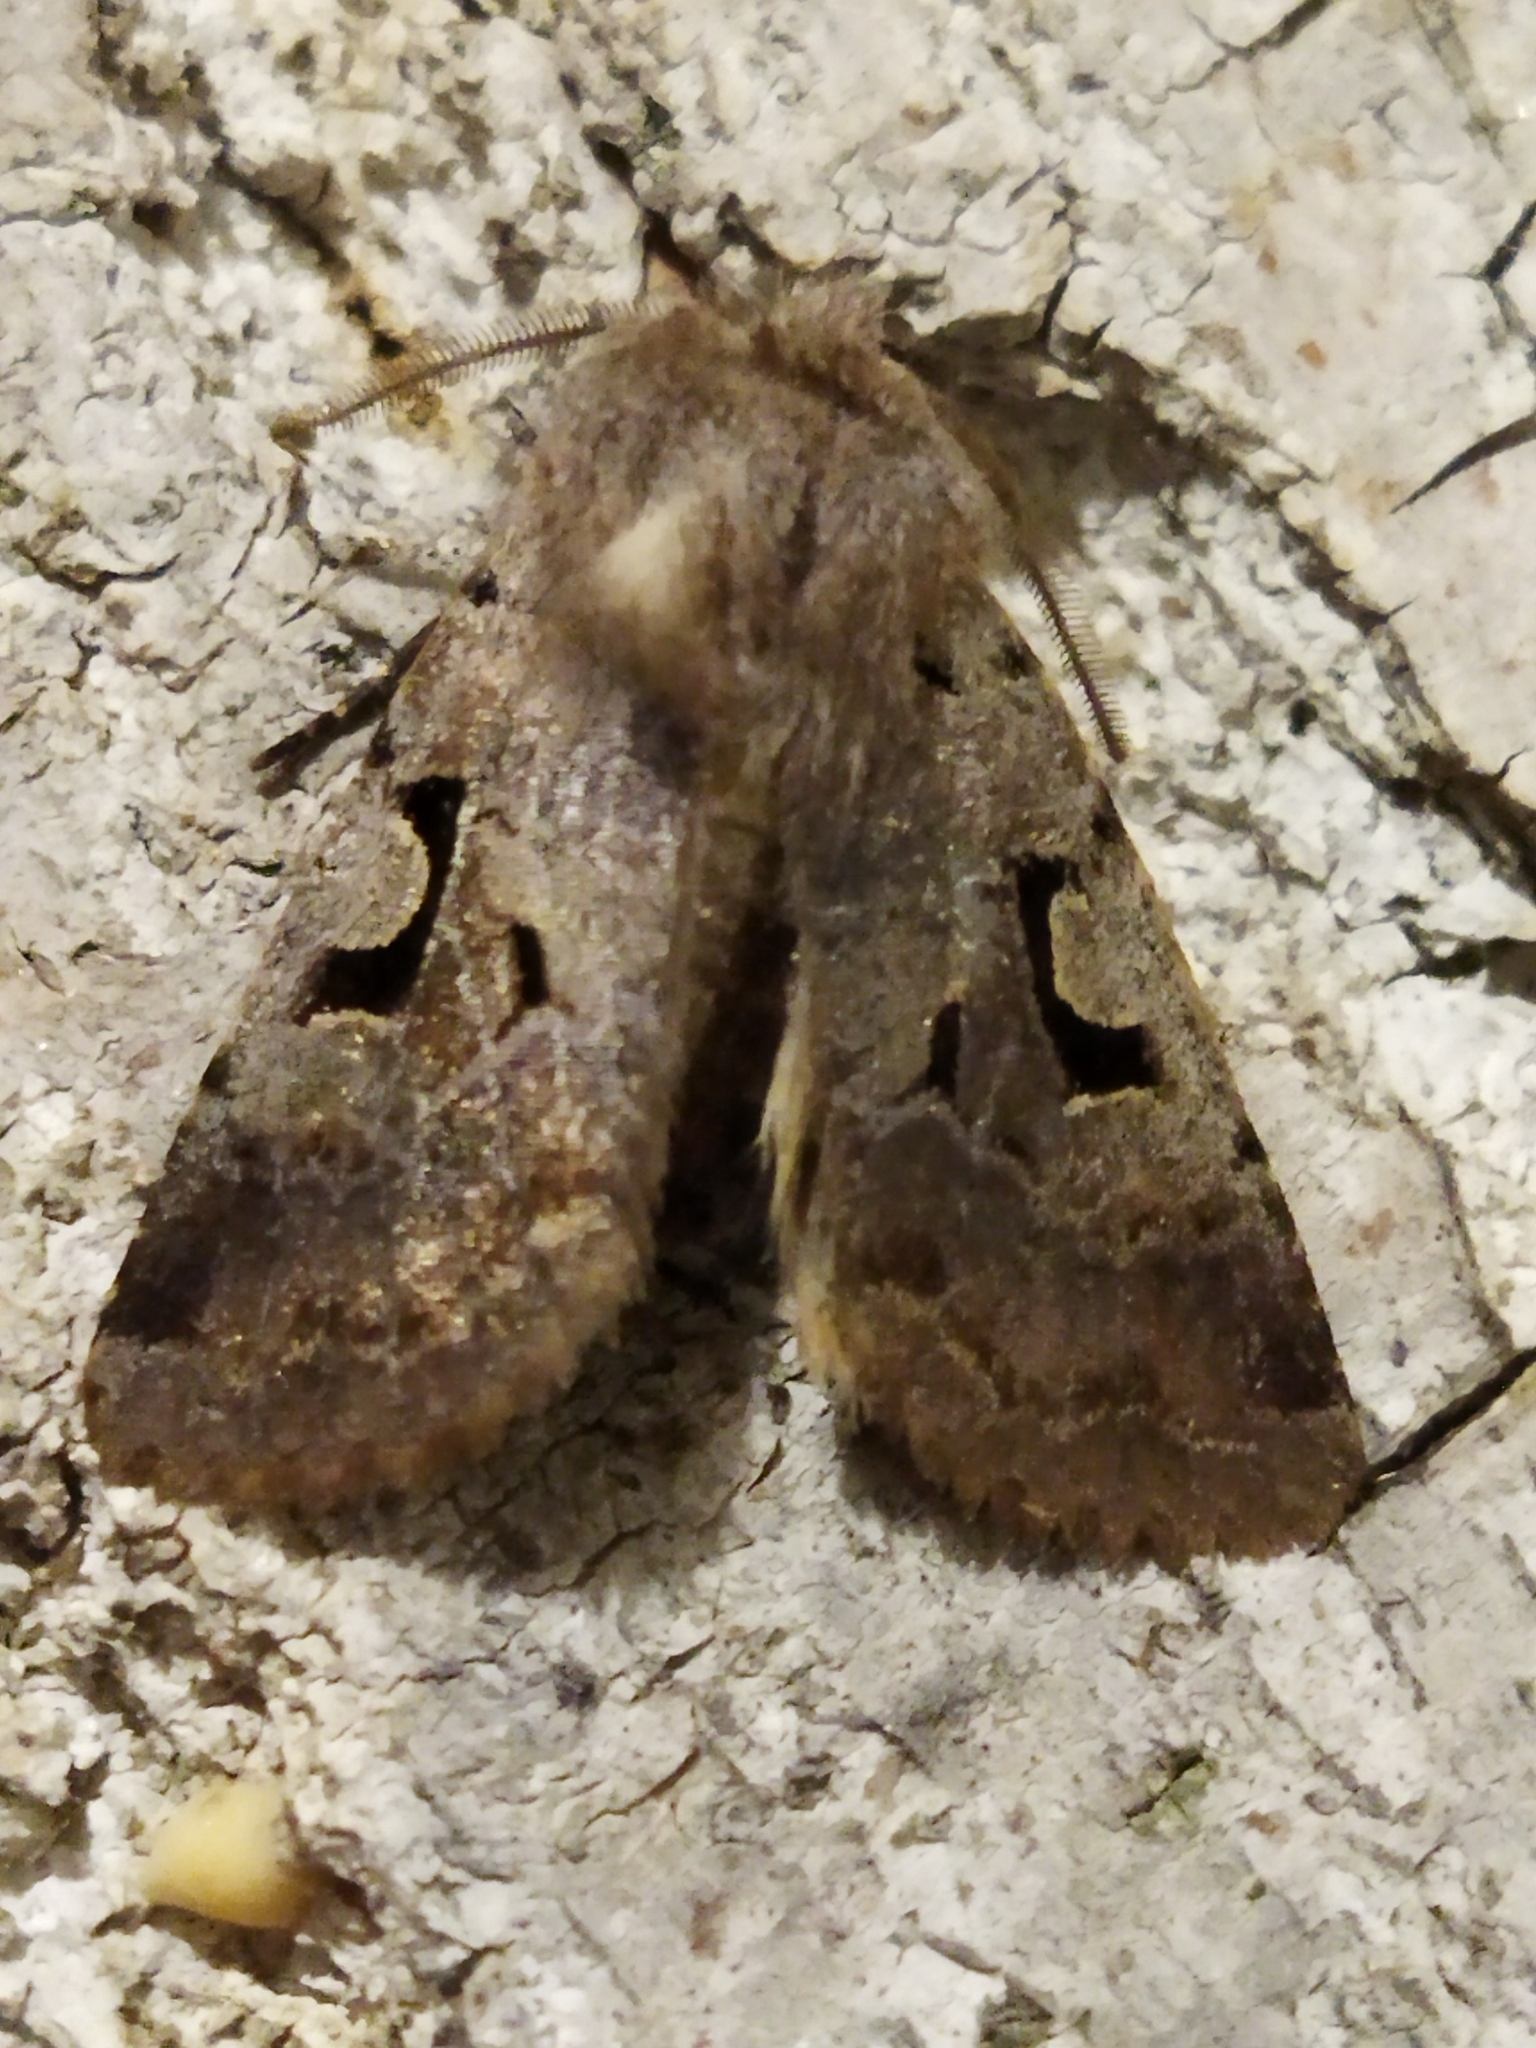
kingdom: Animalia
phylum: Arthropoda
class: Insecta
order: Lepidoptera
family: Noctuidae
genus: Orthosia
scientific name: Orthosia gothica
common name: Hebrew character
